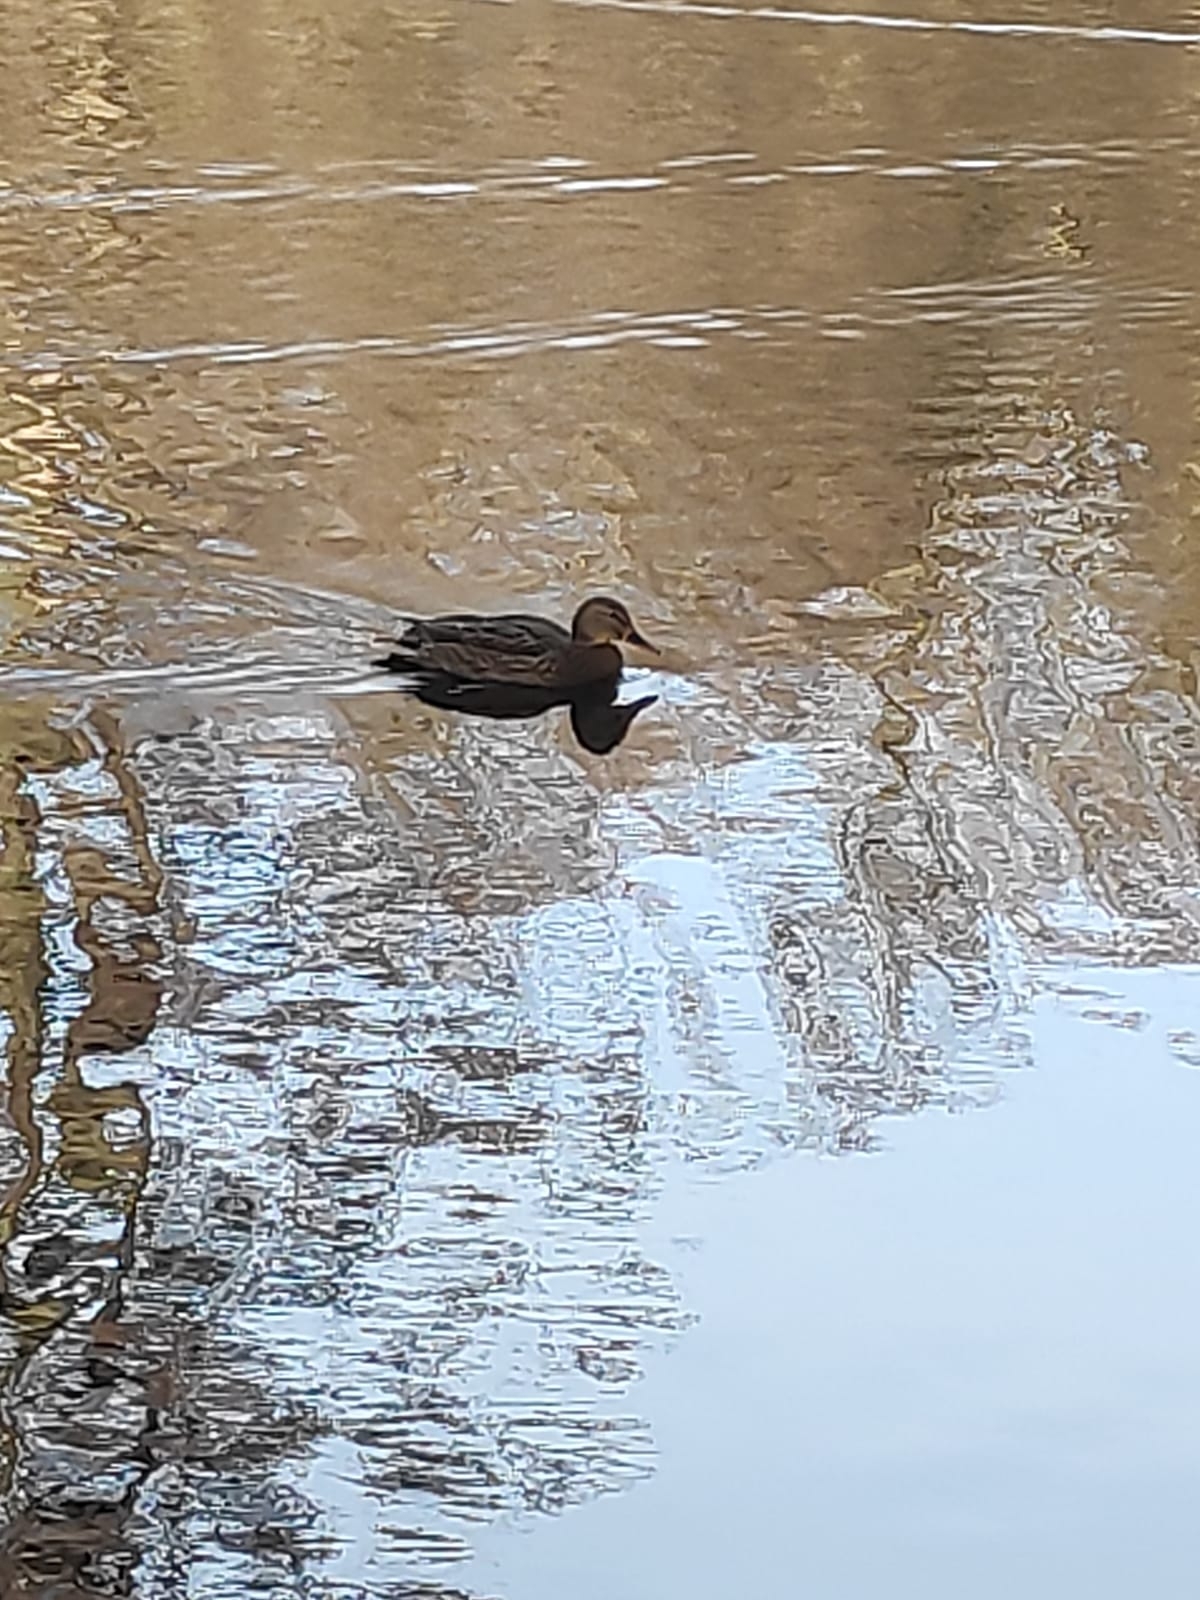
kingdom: Animalia
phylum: Chordata
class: Aves
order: Anseriformes
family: Anatidae
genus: Anas
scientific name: Anas platyrhynchos
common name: Mallard
